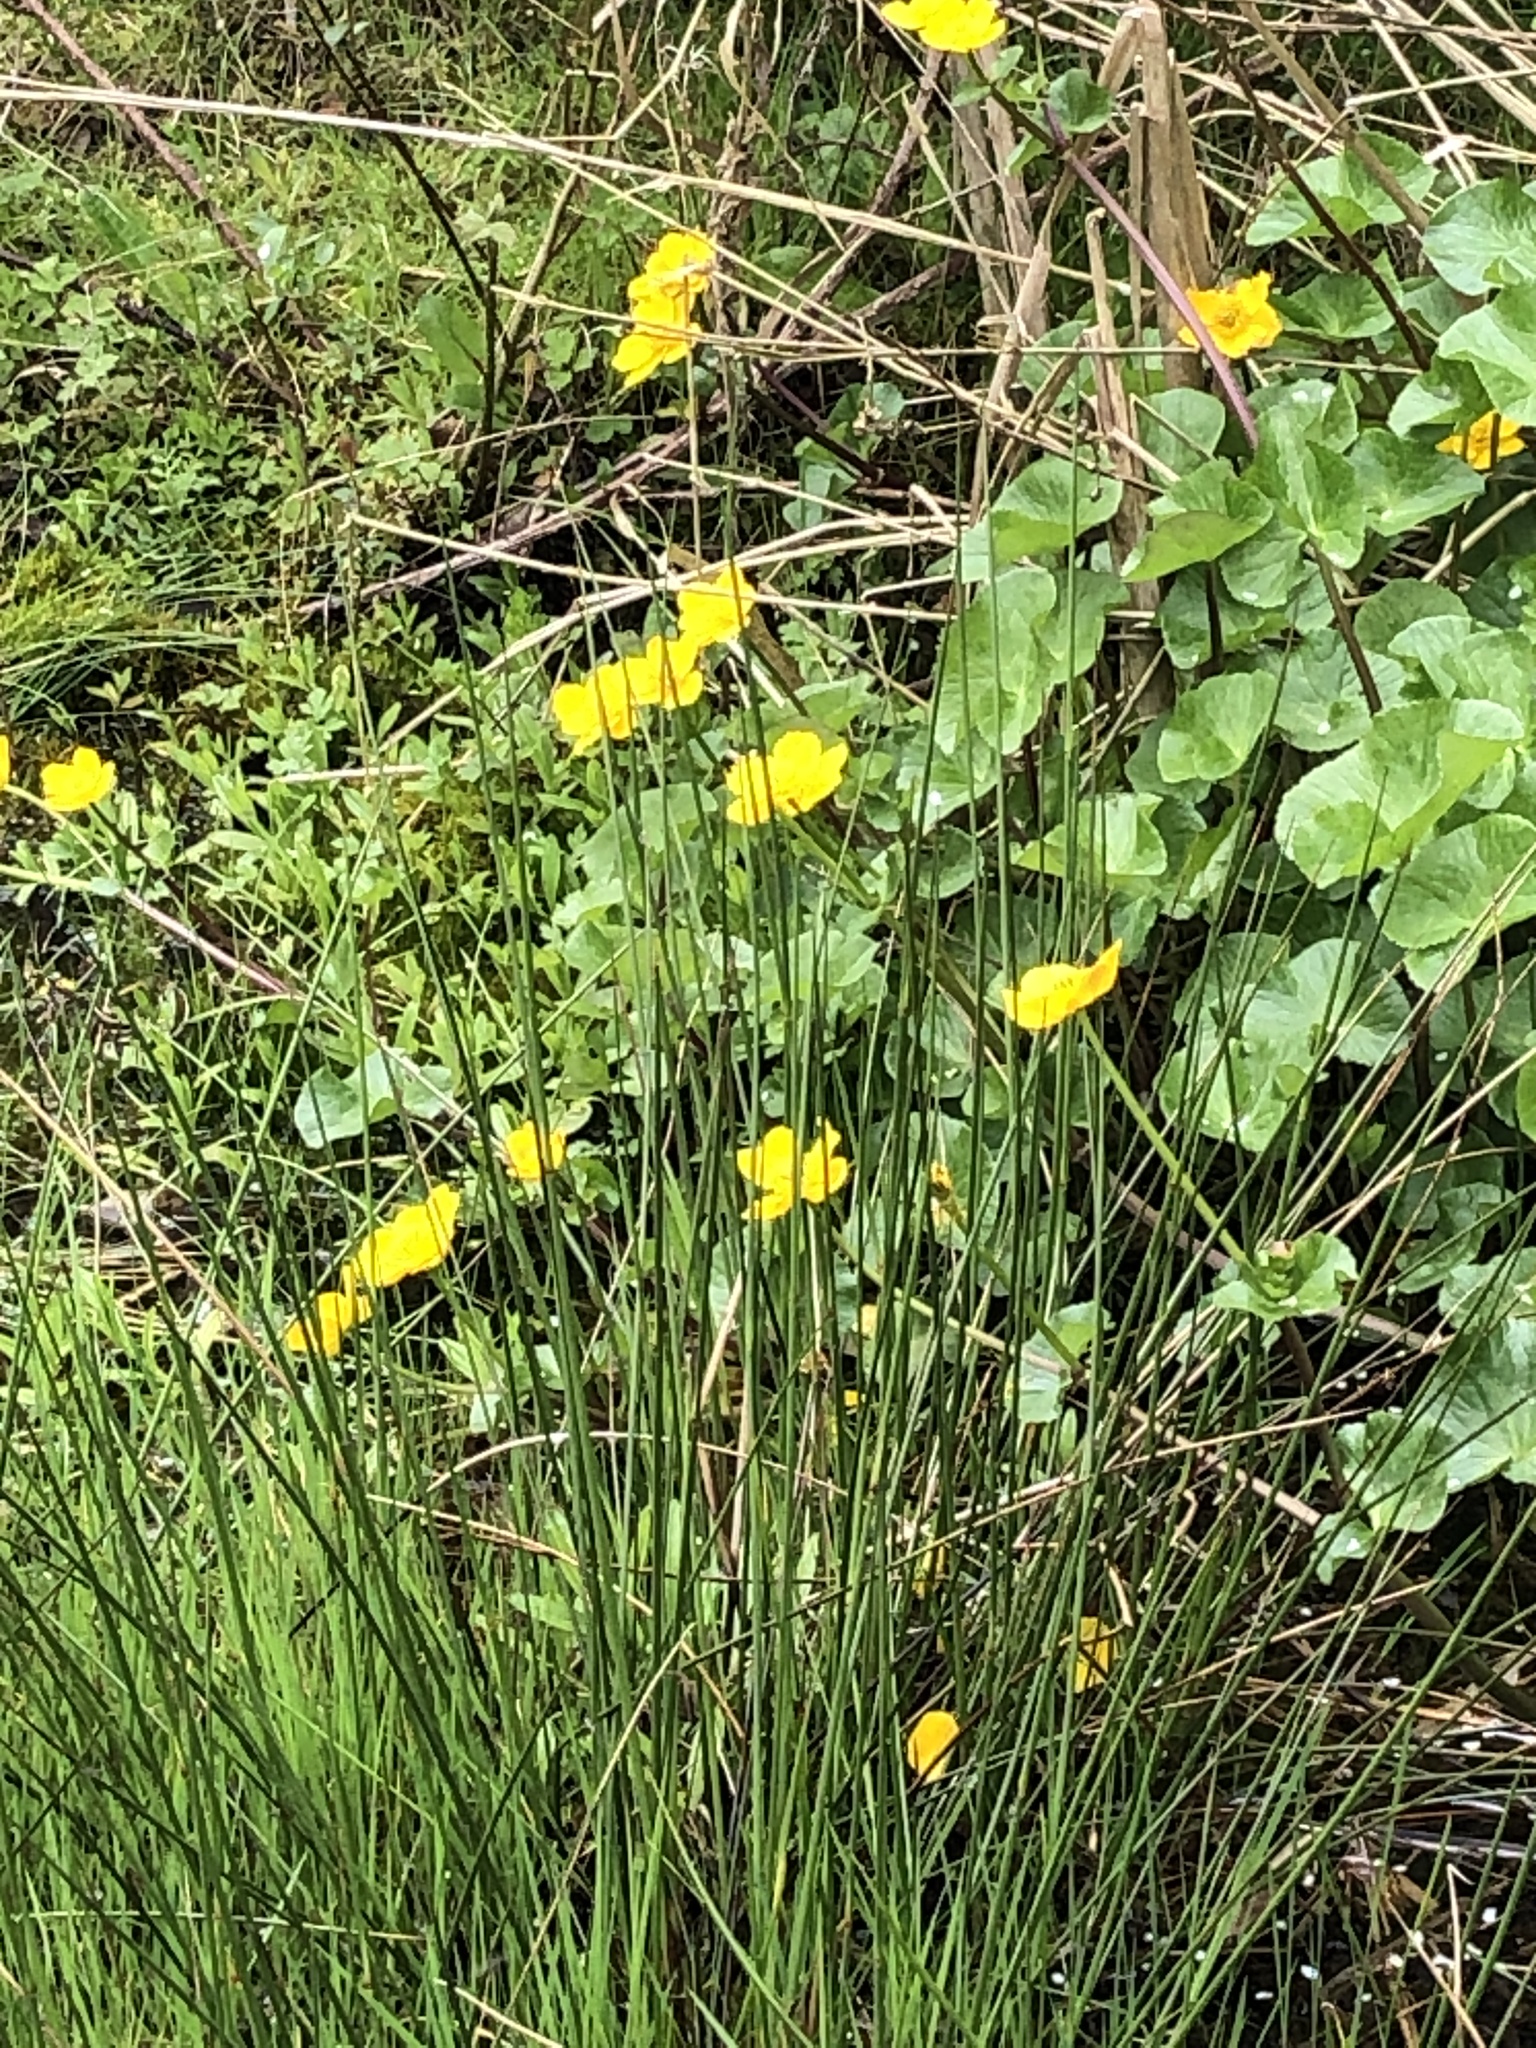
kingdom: Plantae
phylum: Tracheophyta
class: Magnoliopsida
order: Ranunculales
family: Ranunculaceae
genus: Caltha
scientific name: Caltha palustris
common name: Marsh marigold
